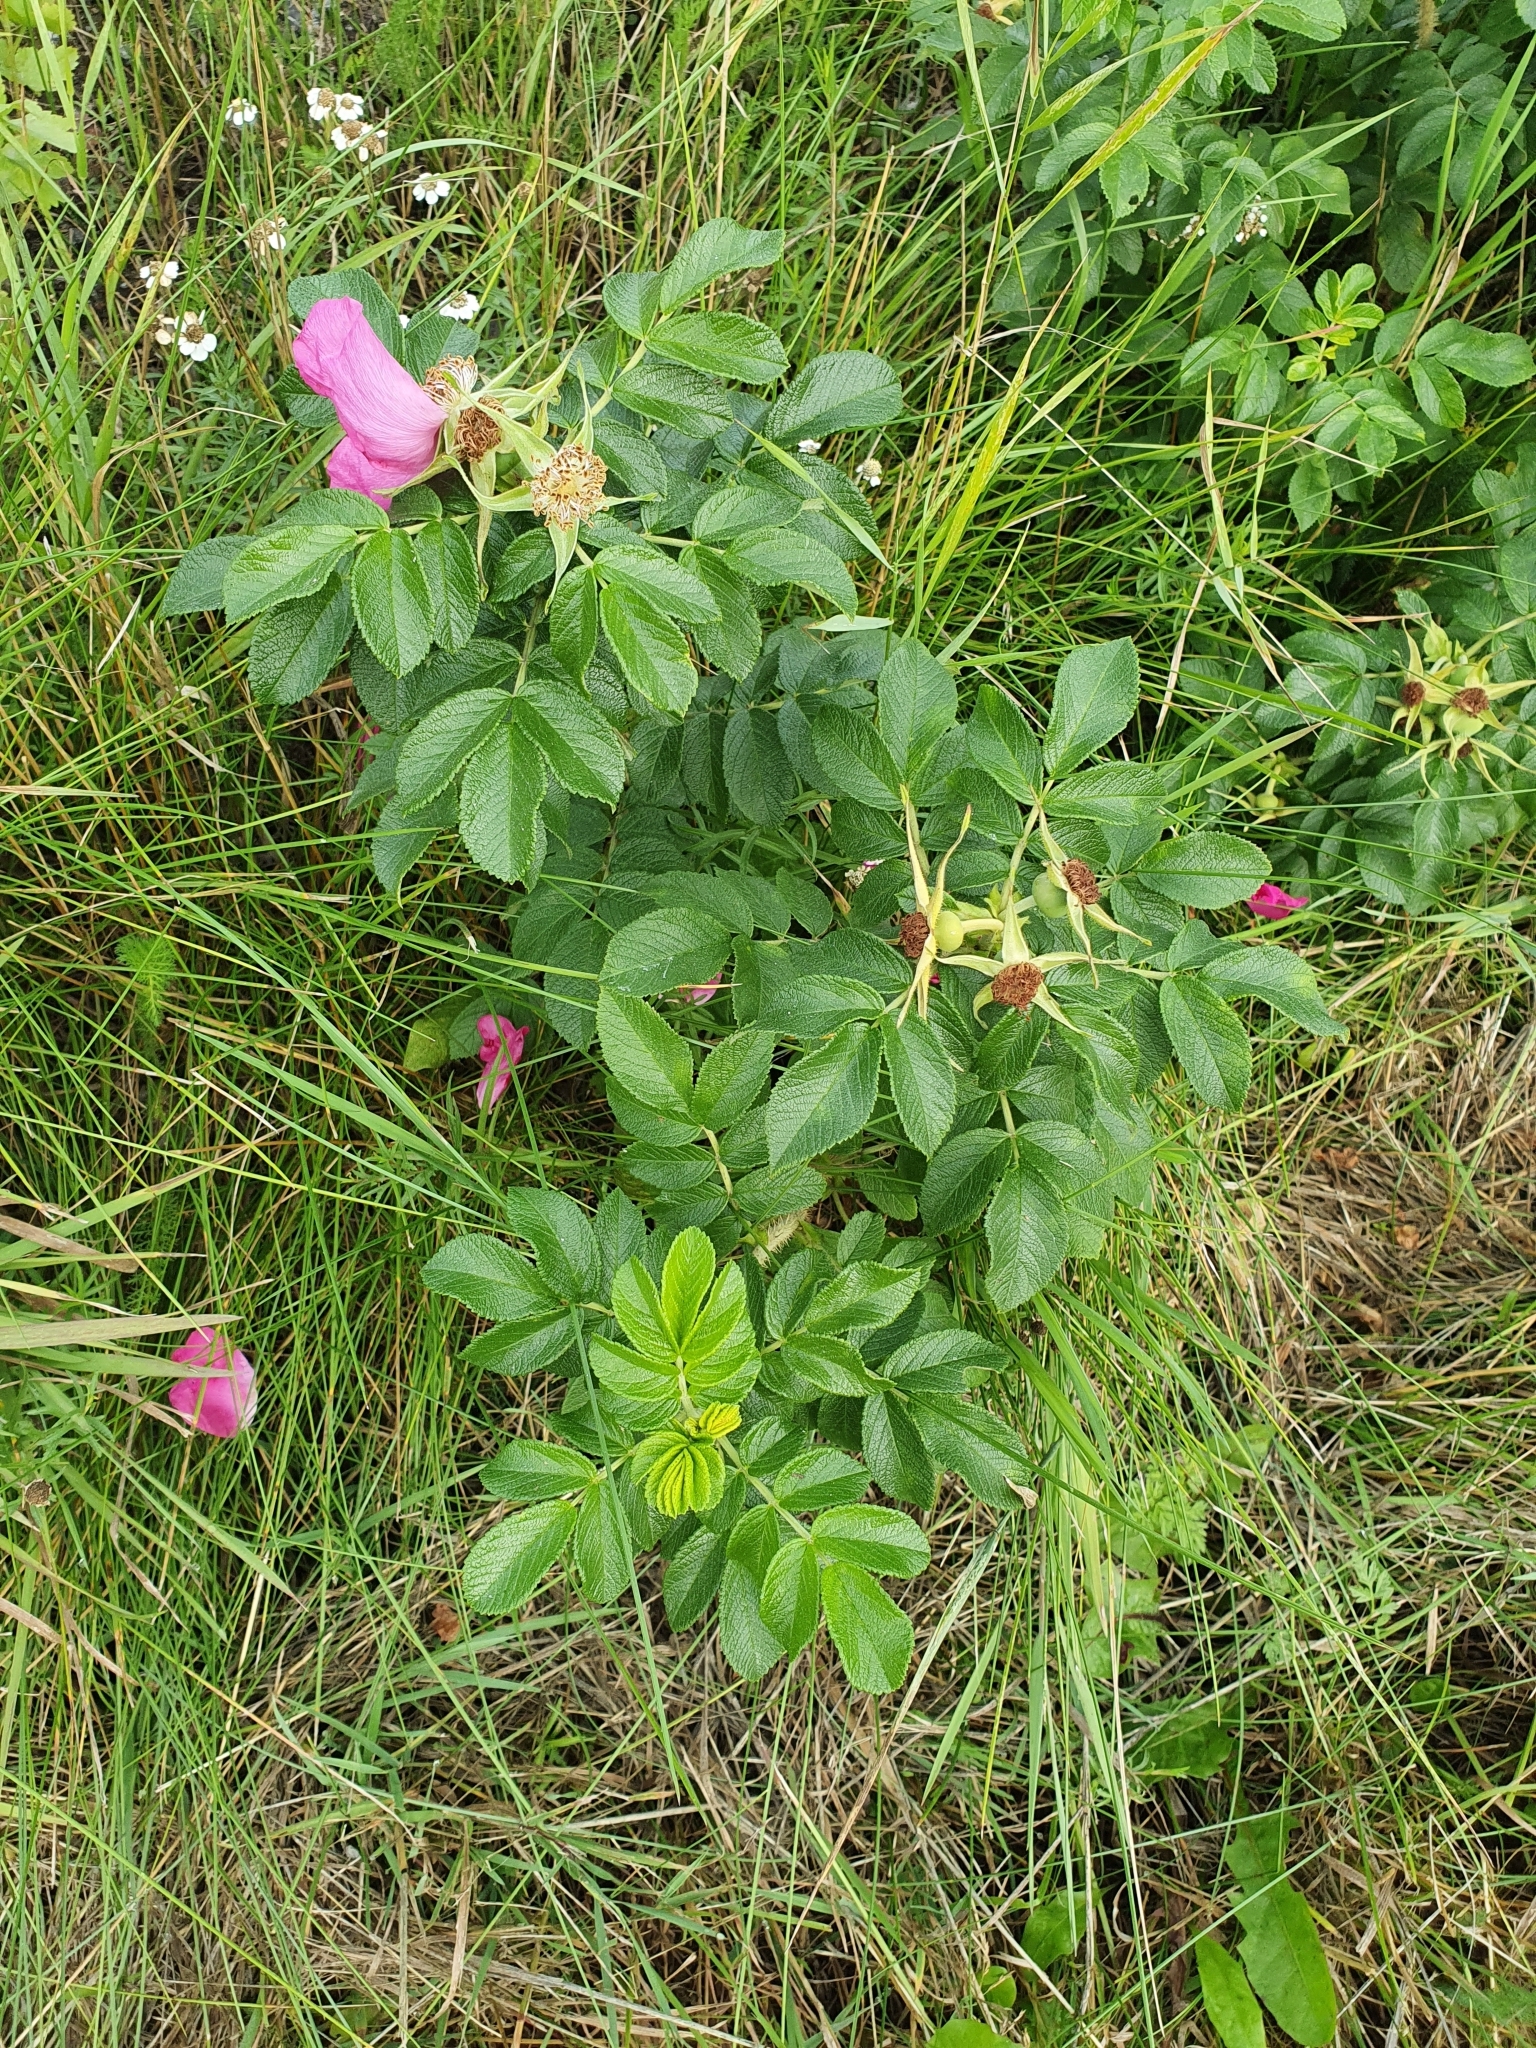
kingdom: Plantae
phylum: Tracheophyta
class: Magnoliopsida
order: Rosales
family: Rosaceae
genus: Rosa
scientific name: Rosa rugosa
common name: Japanese rose
